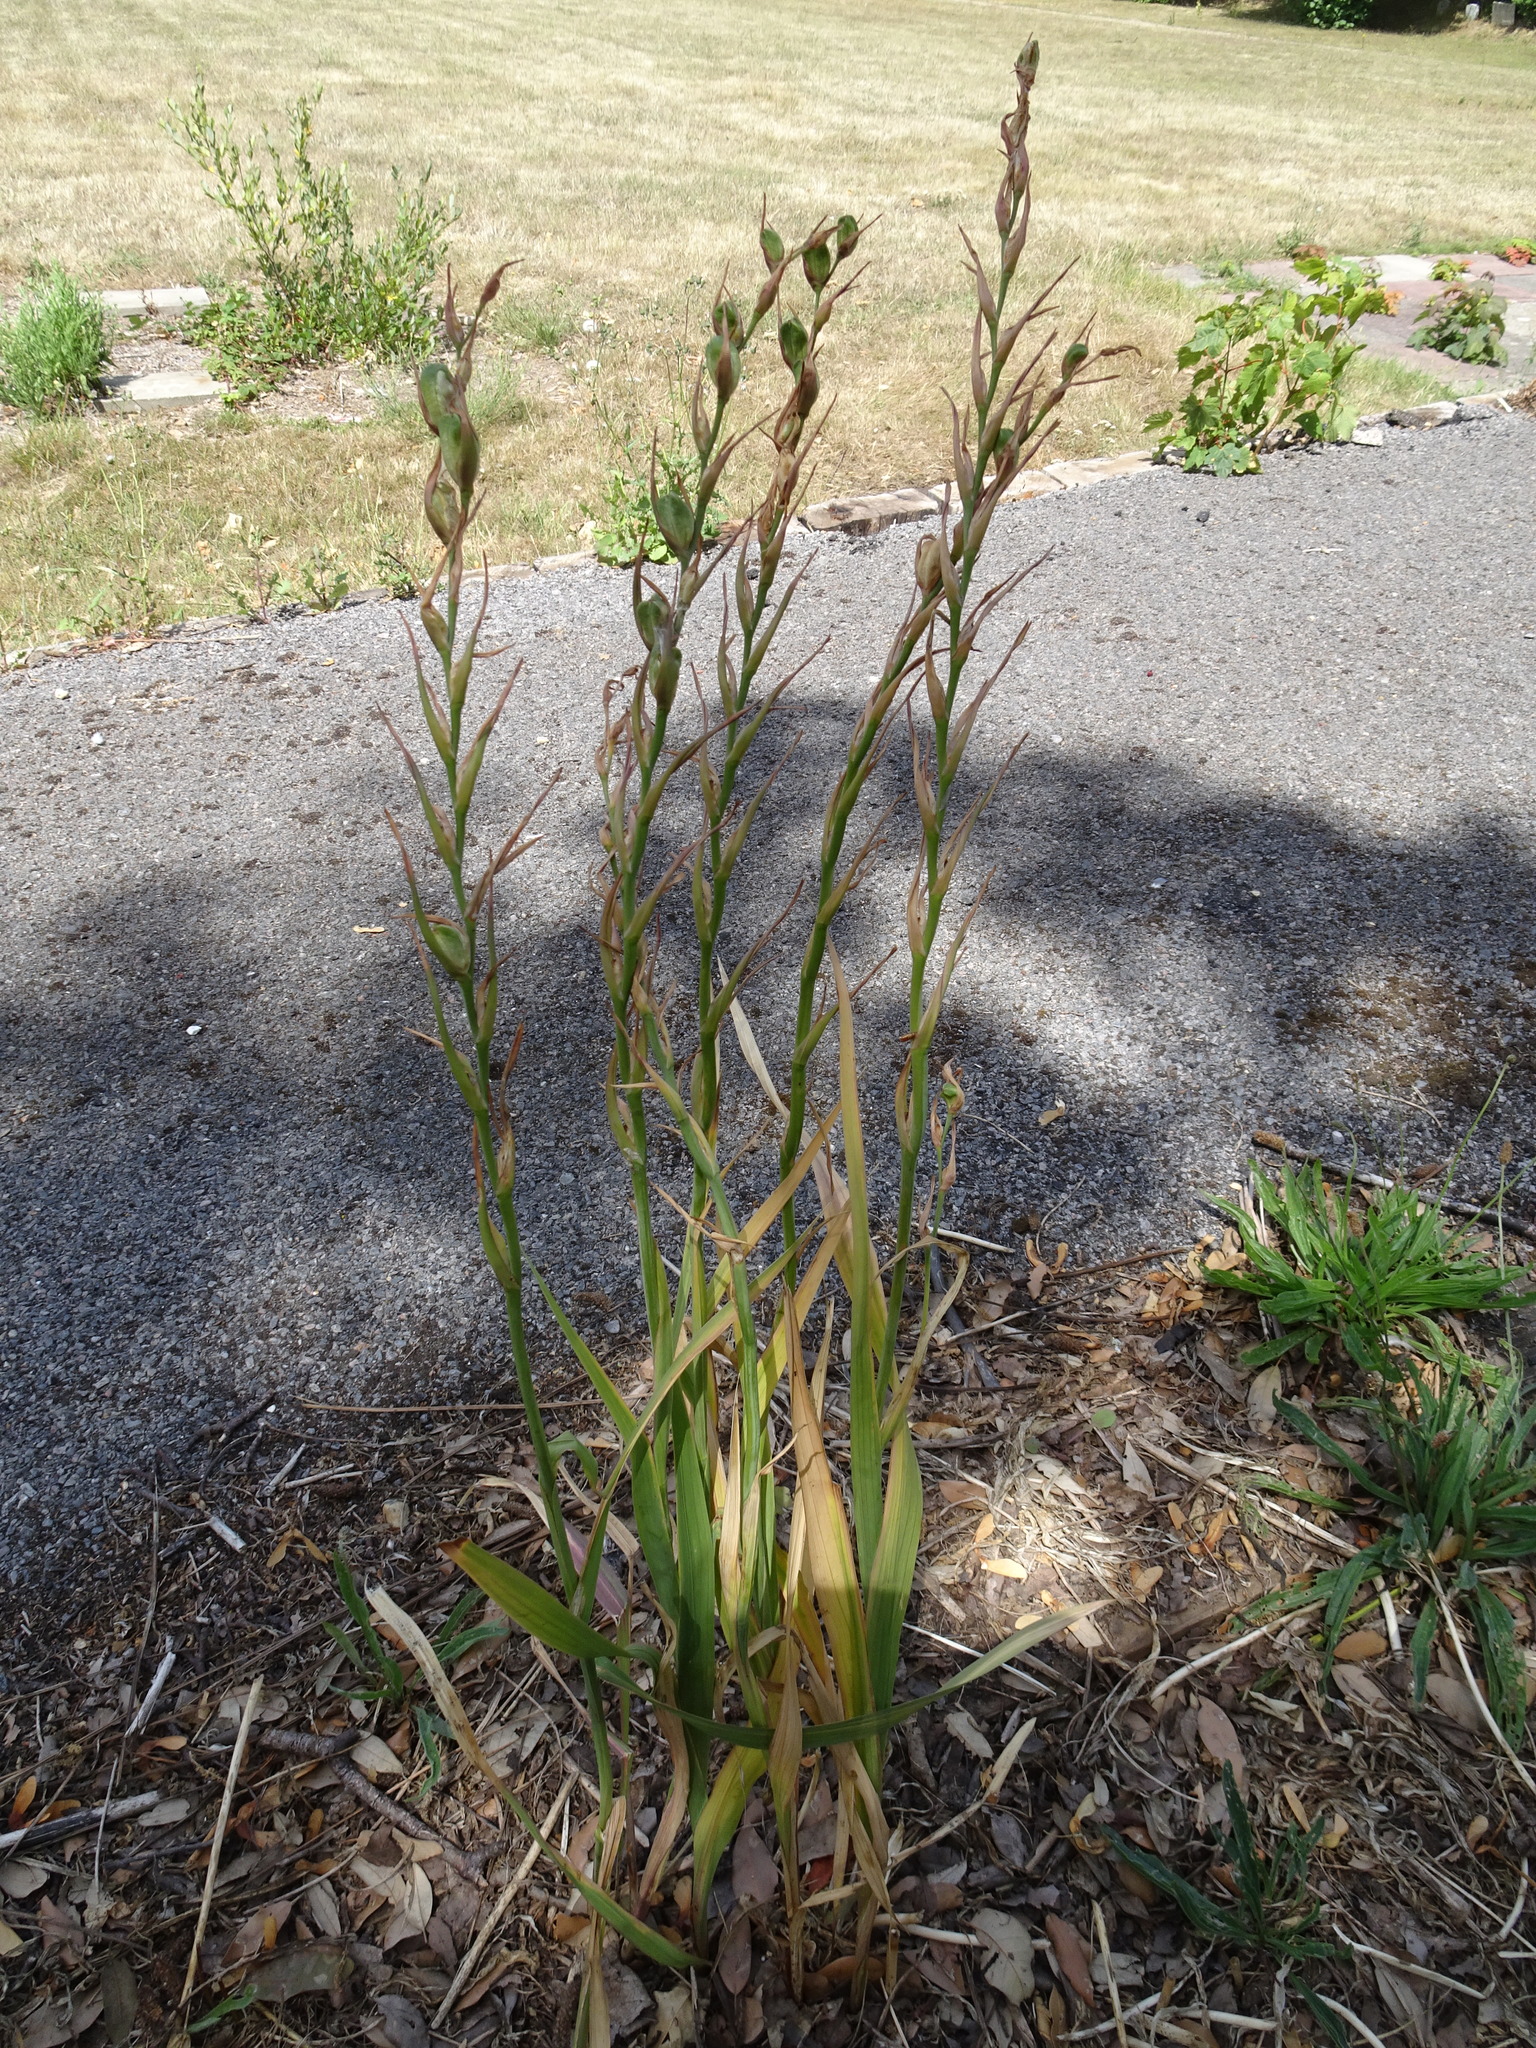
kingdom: Plantae
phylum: Tracheophyta
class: Liliopsida
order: Asparagales
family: Iridaceae
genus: Gladiolus
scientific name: Gladiolus communis
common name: Eastern gladiolus
